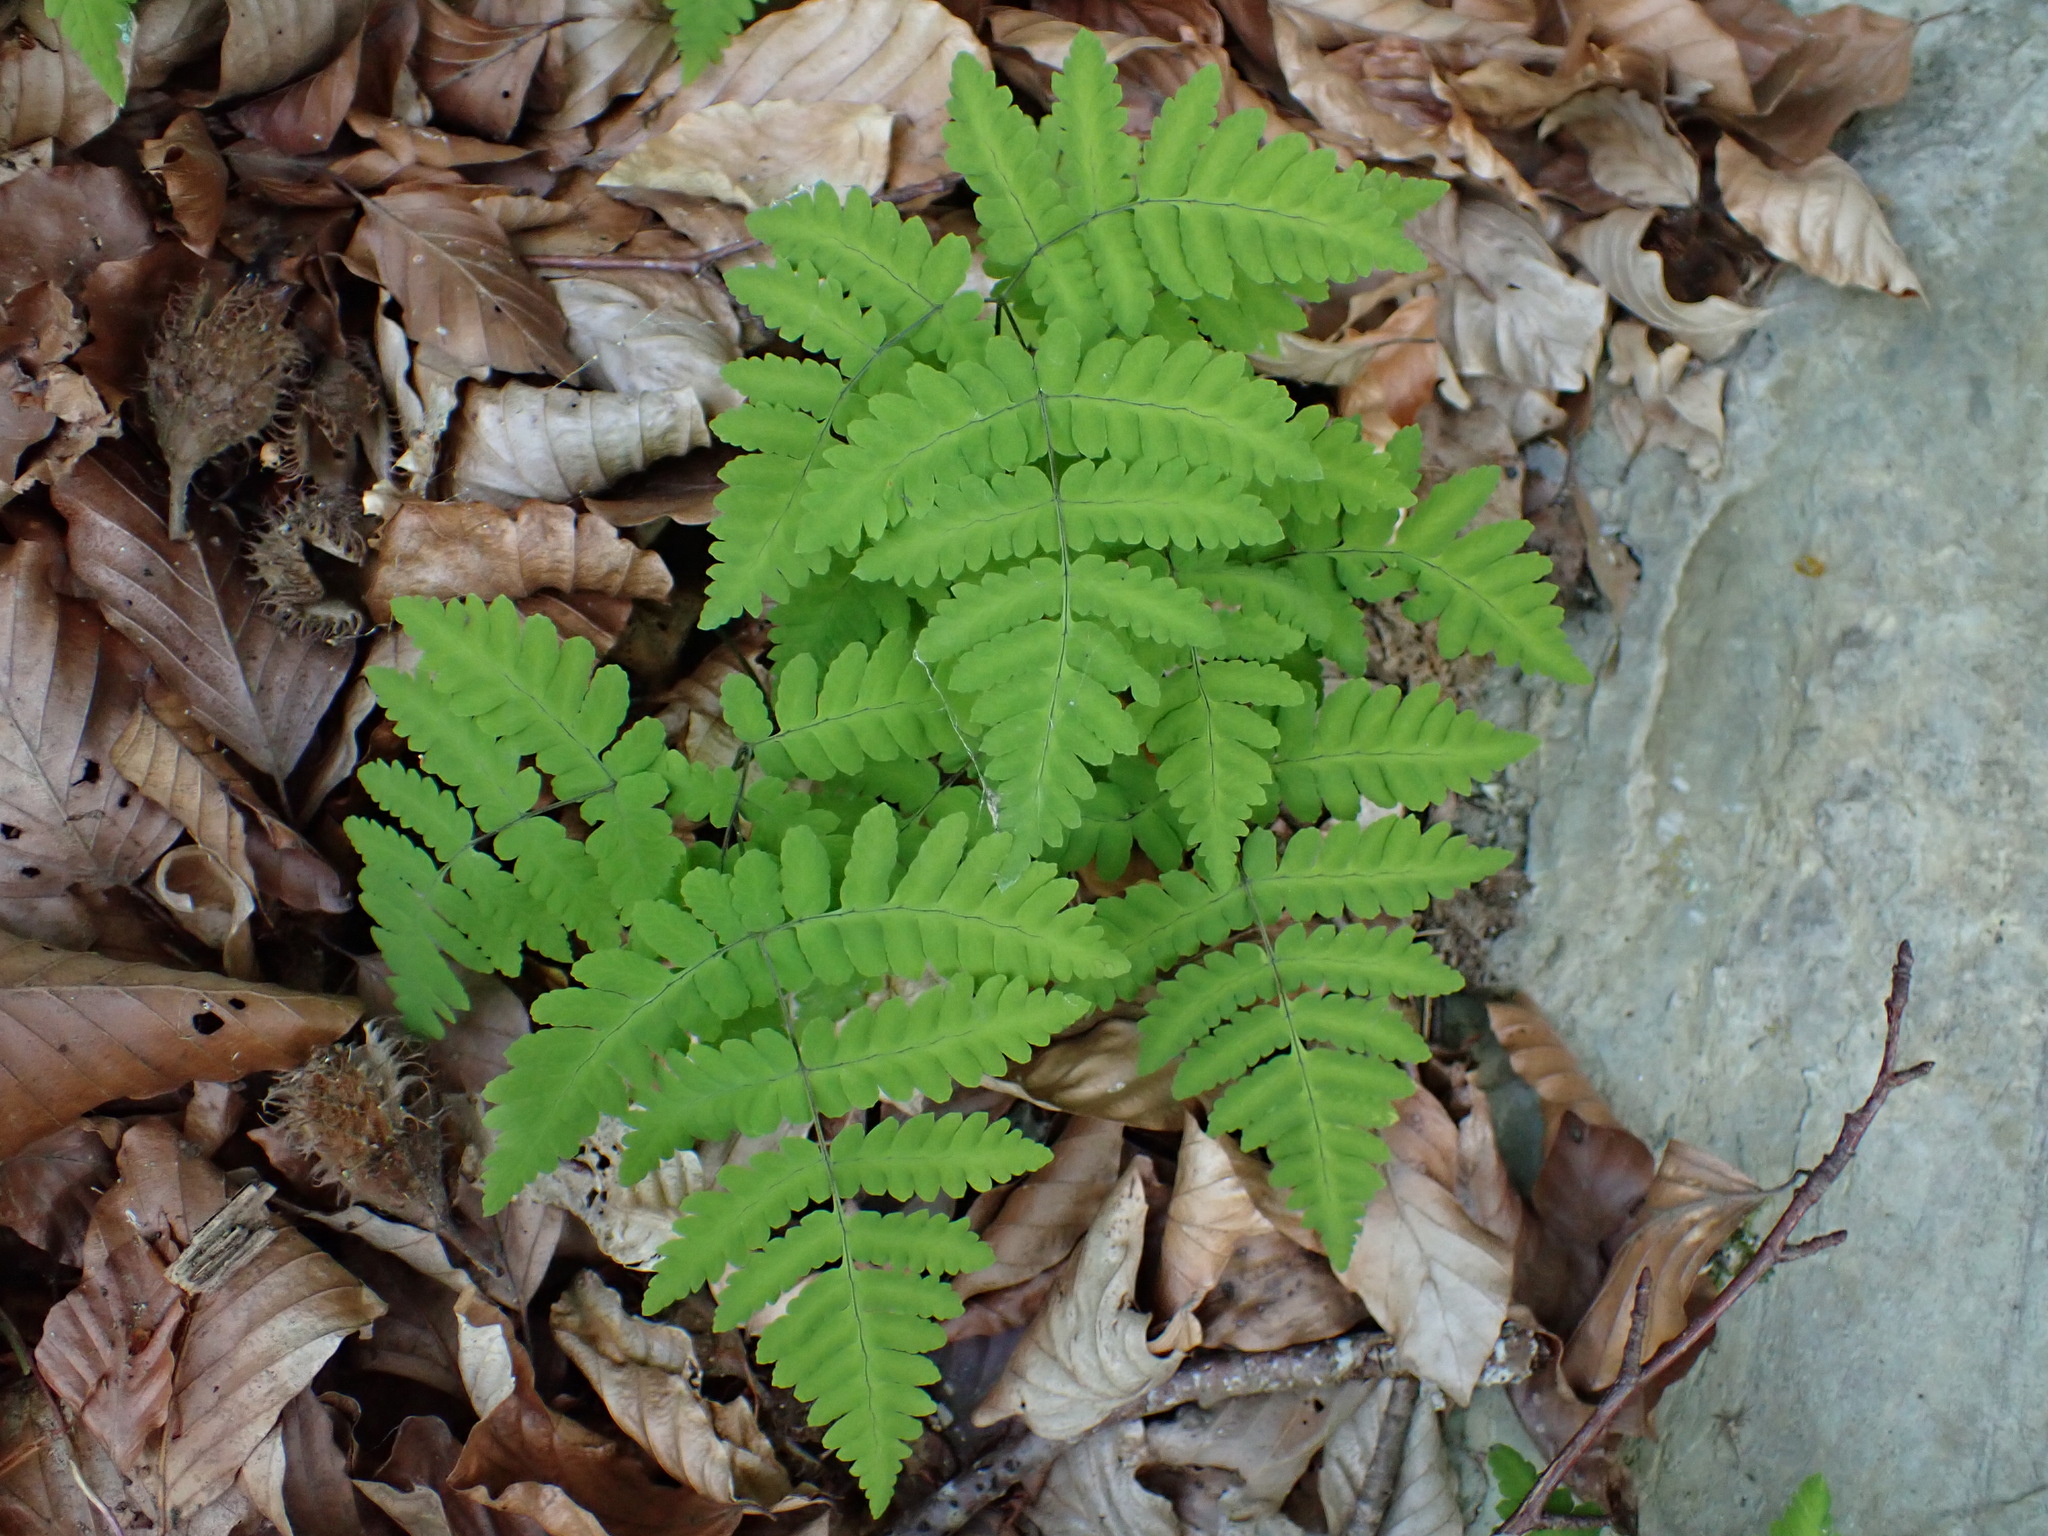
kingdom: Plantae
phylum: Tracheophyta
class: Polypodiopsida
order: Polypodiales
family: Cystopteridaceae
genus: Gymnocarpium
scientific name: Gymnocarpium dryopteris
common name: Oak fern
